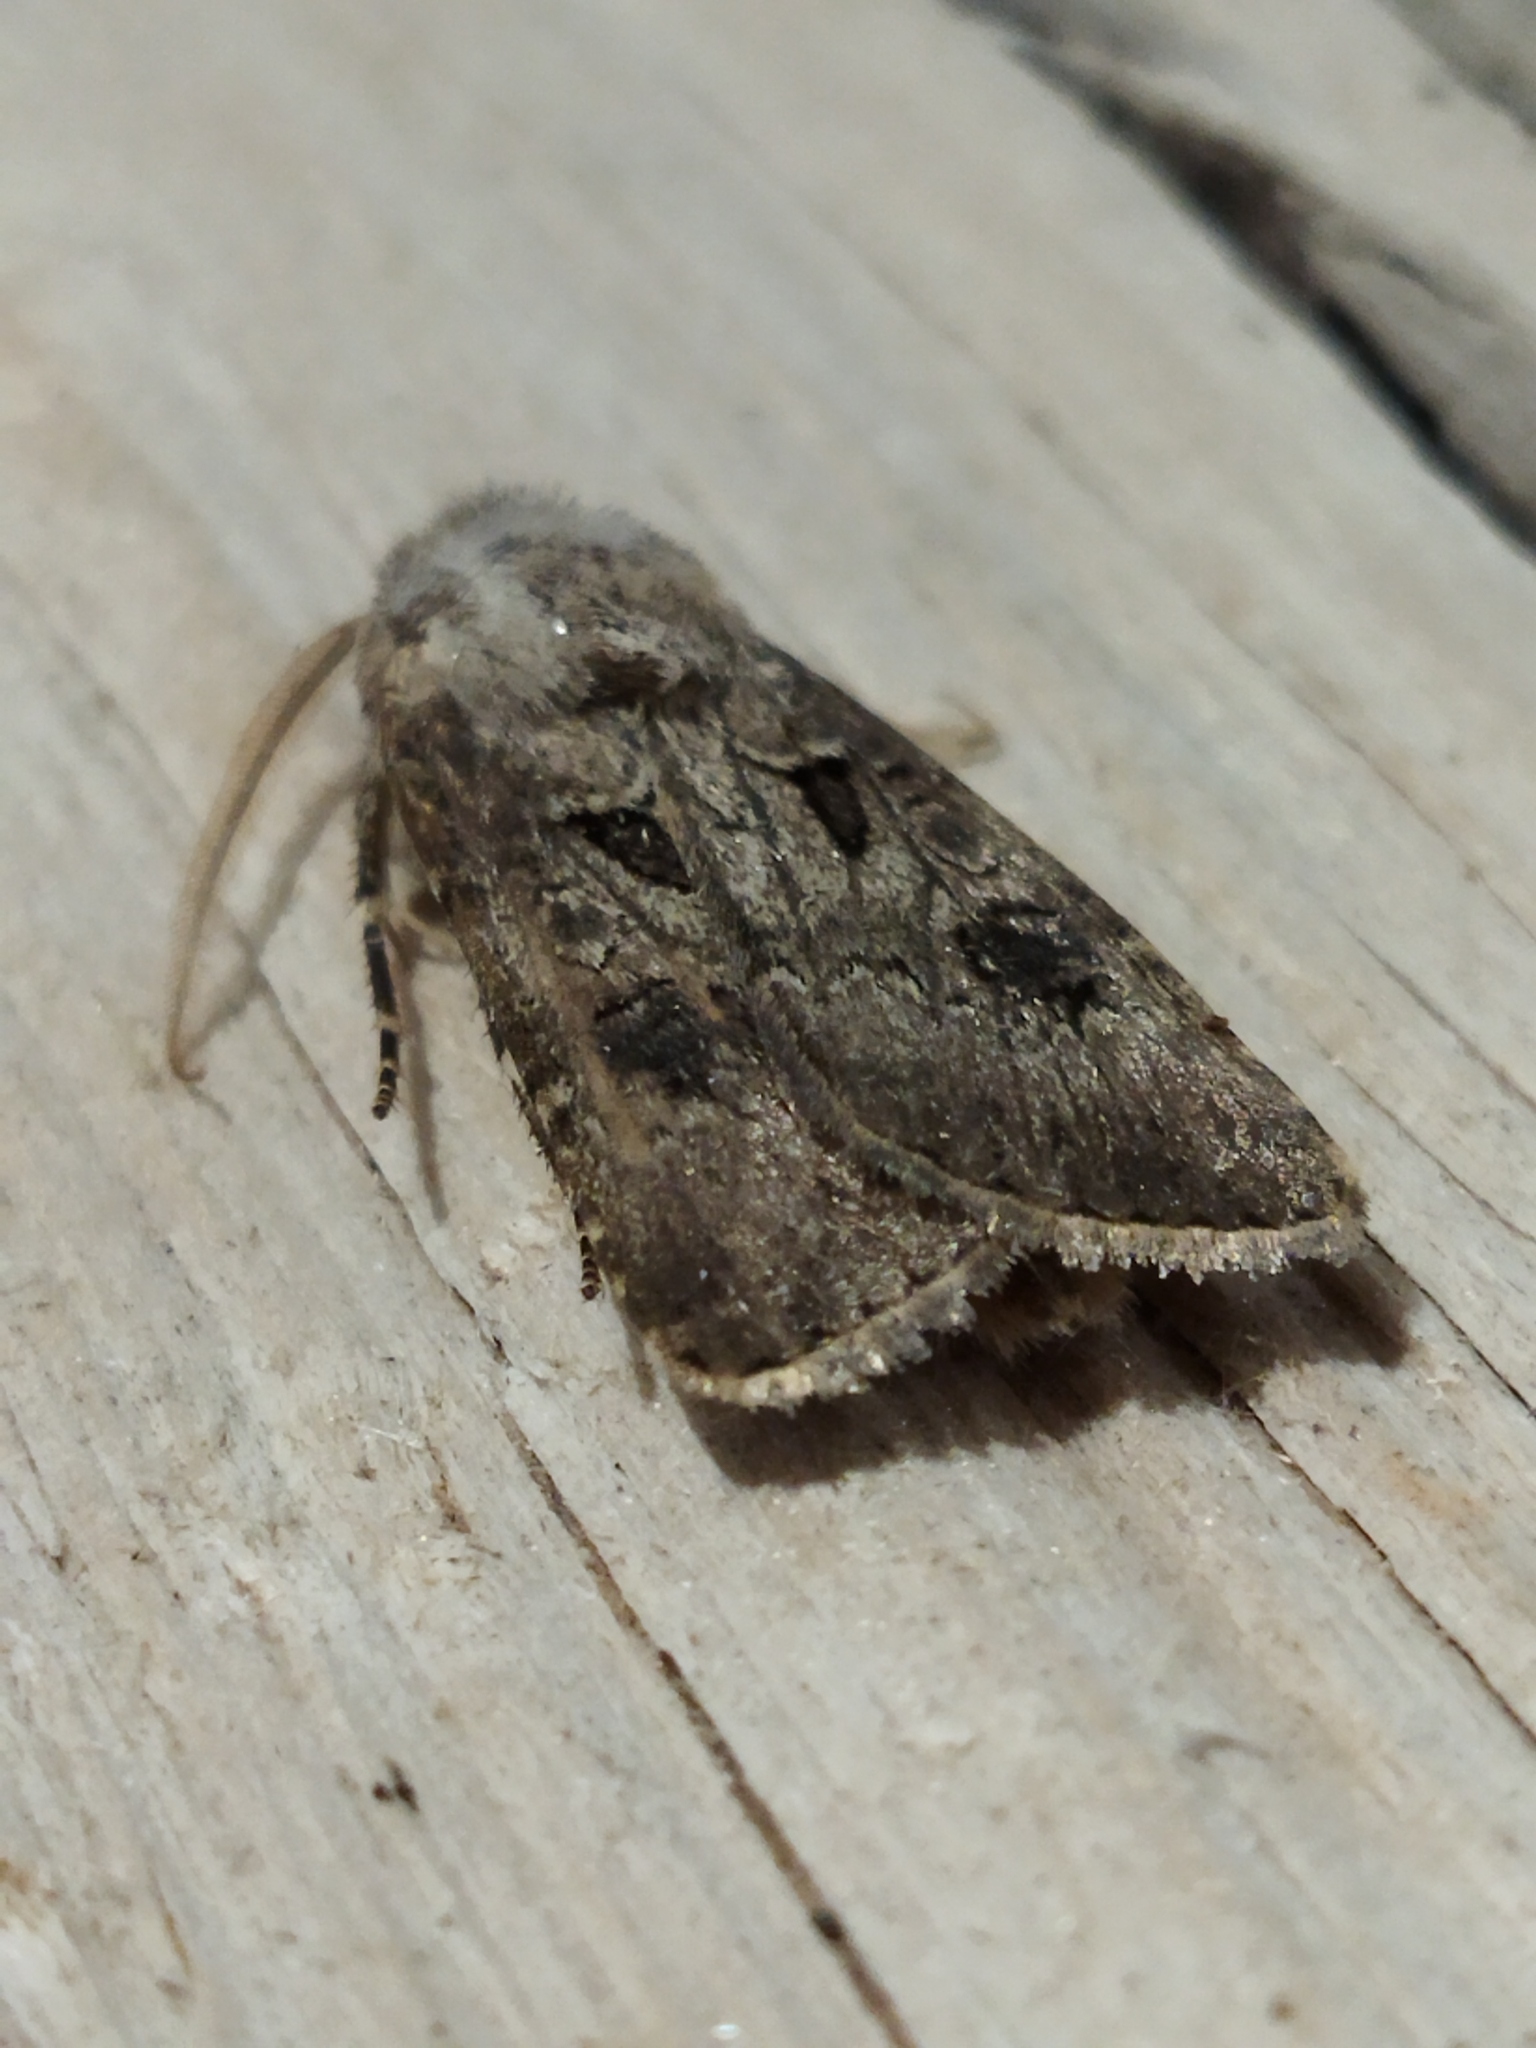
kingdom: Animalia
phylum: Arthropoda
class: Insecta
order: Lepidoptera
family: Noctuidae
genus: Agrotis
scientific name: Agrotis bigramma
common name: Great dart
